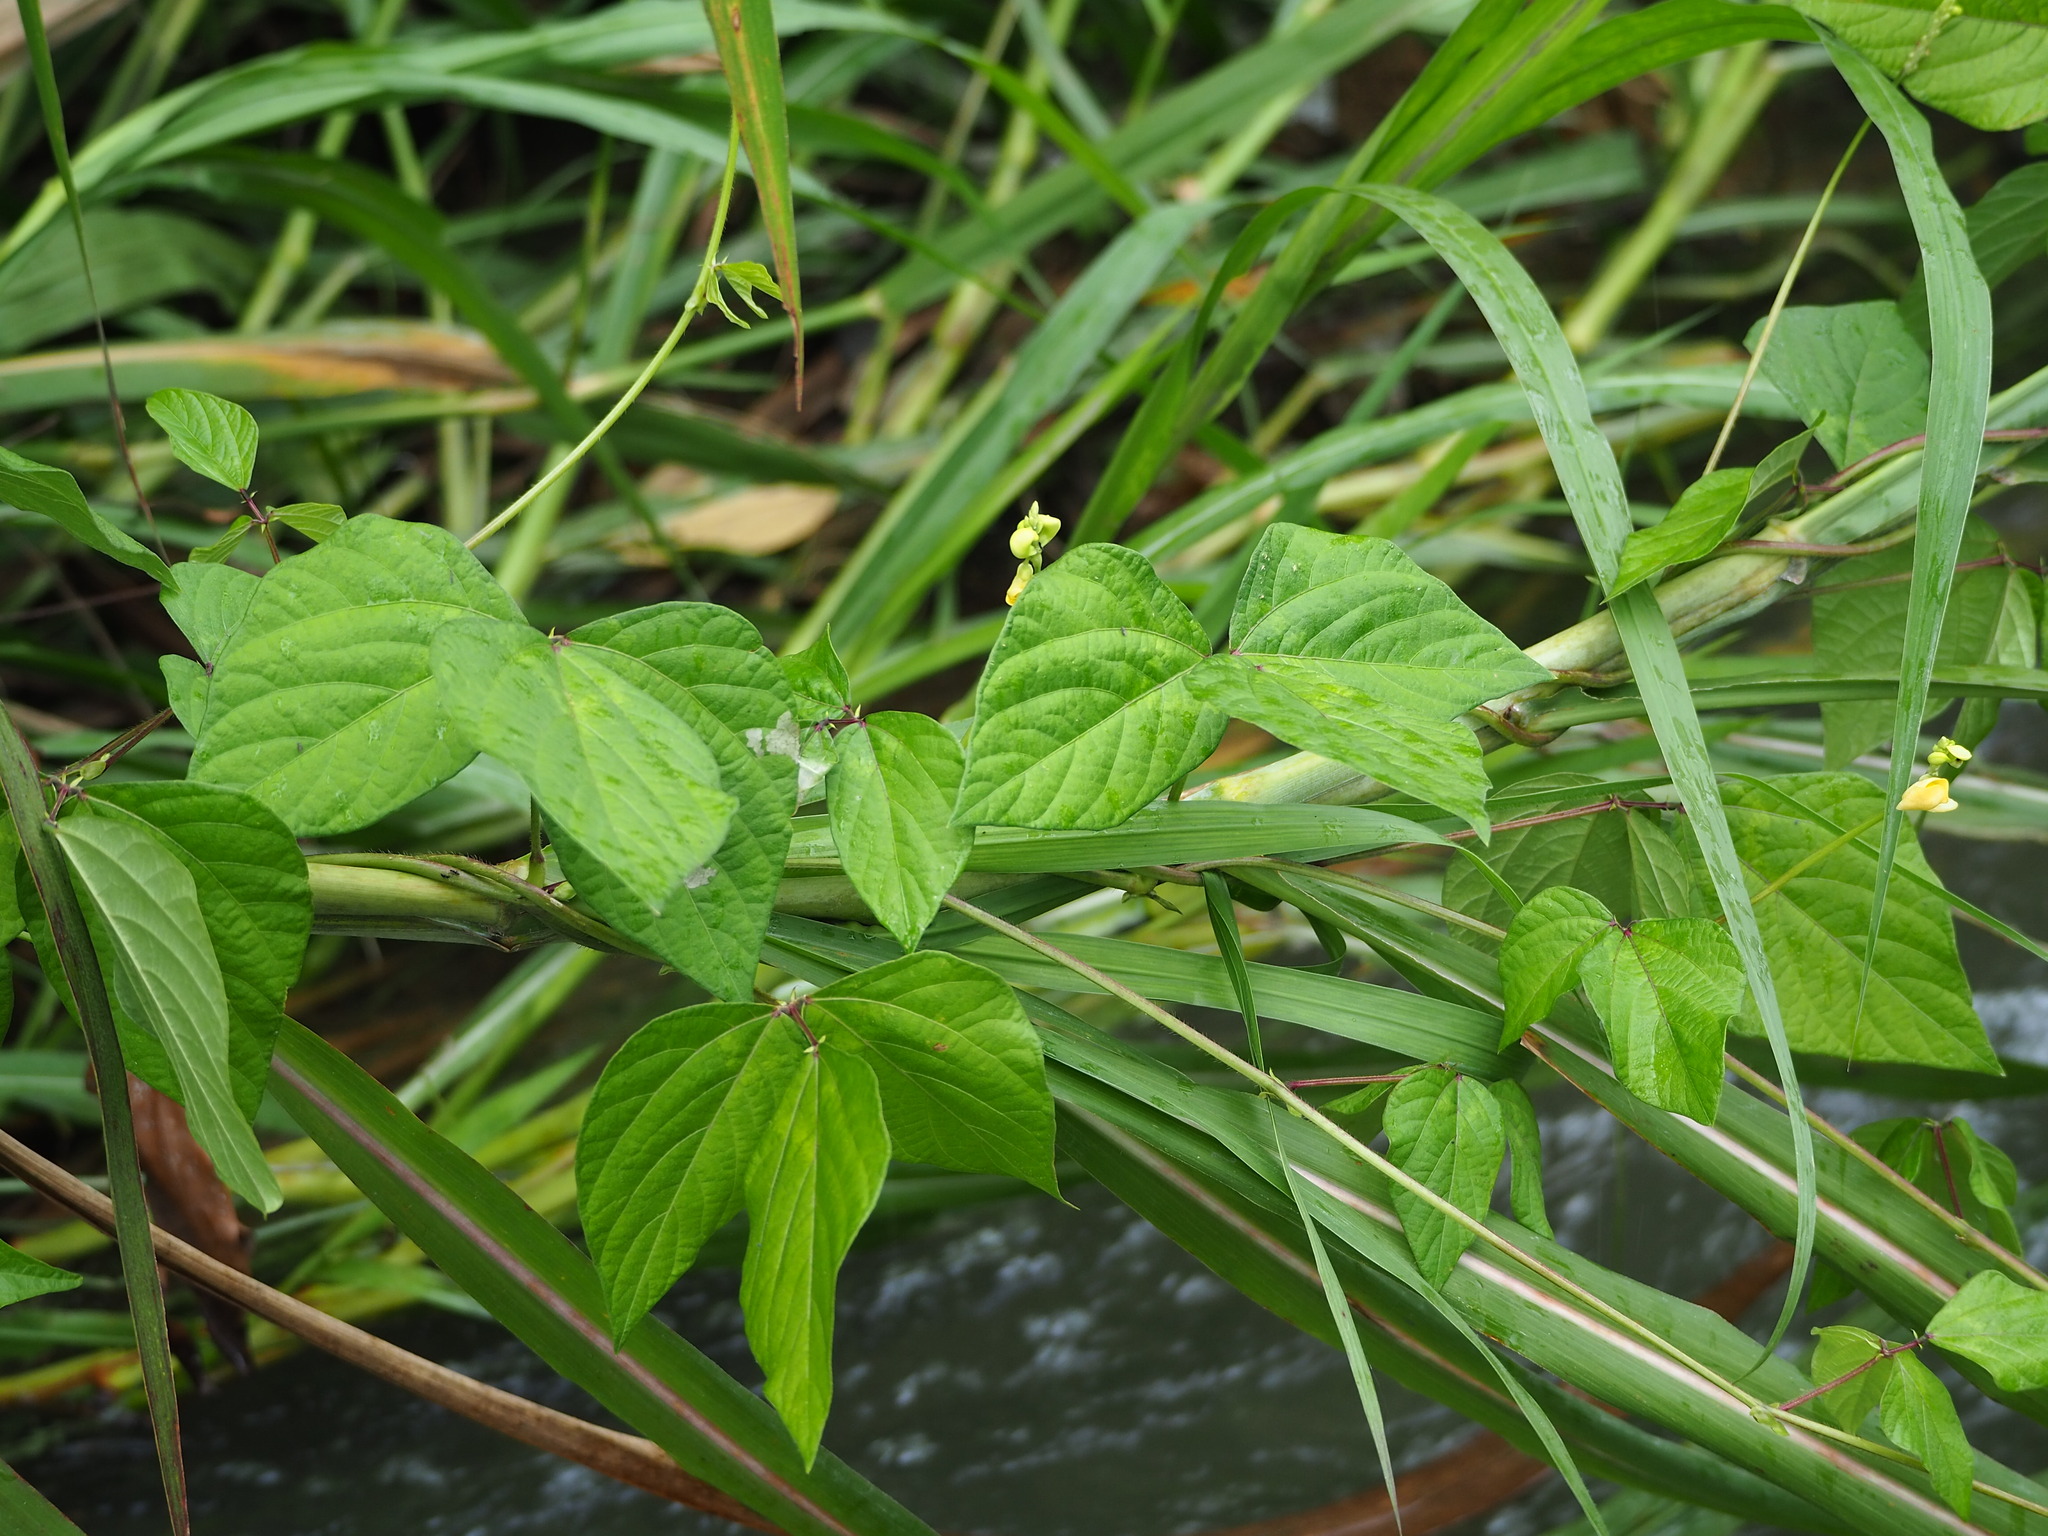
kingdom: Plantae
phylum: Tracheophyta
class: Magnoliopsida
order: Fabales
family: Fabaceae
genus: Vigna
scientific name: Vigna reflexopilosa
